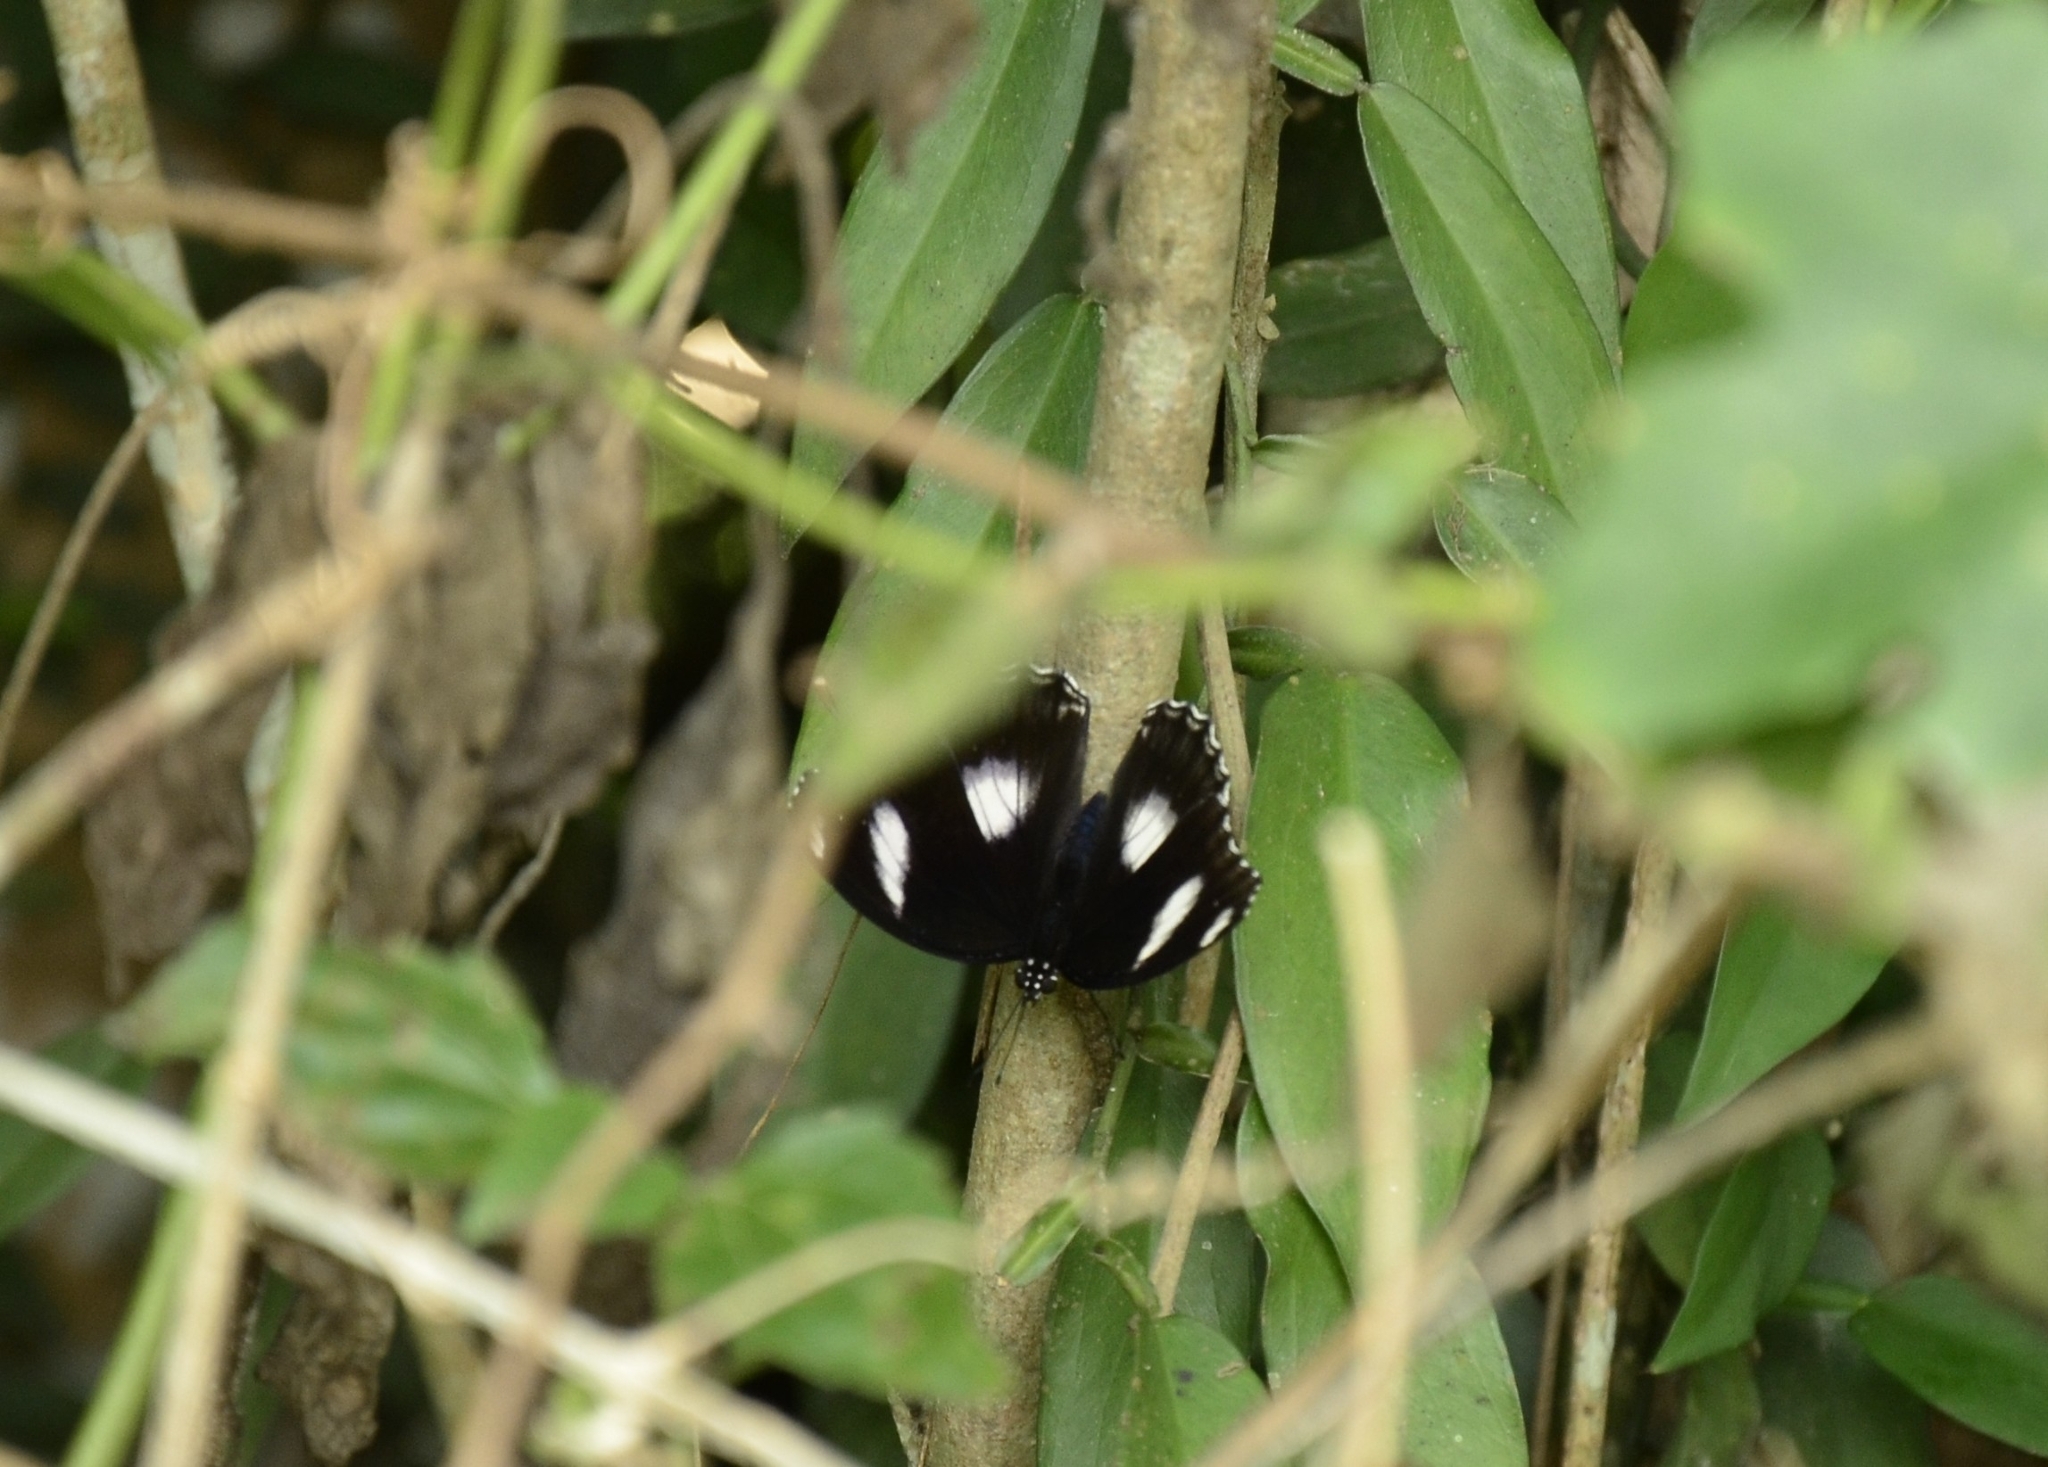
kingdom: Animalia
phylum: Arthropoda
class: Insecta
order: Lepidoptera
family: Nymphalidae
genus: Hypolimnas
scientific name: Hypolimnas bolina
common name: Great eggfly
